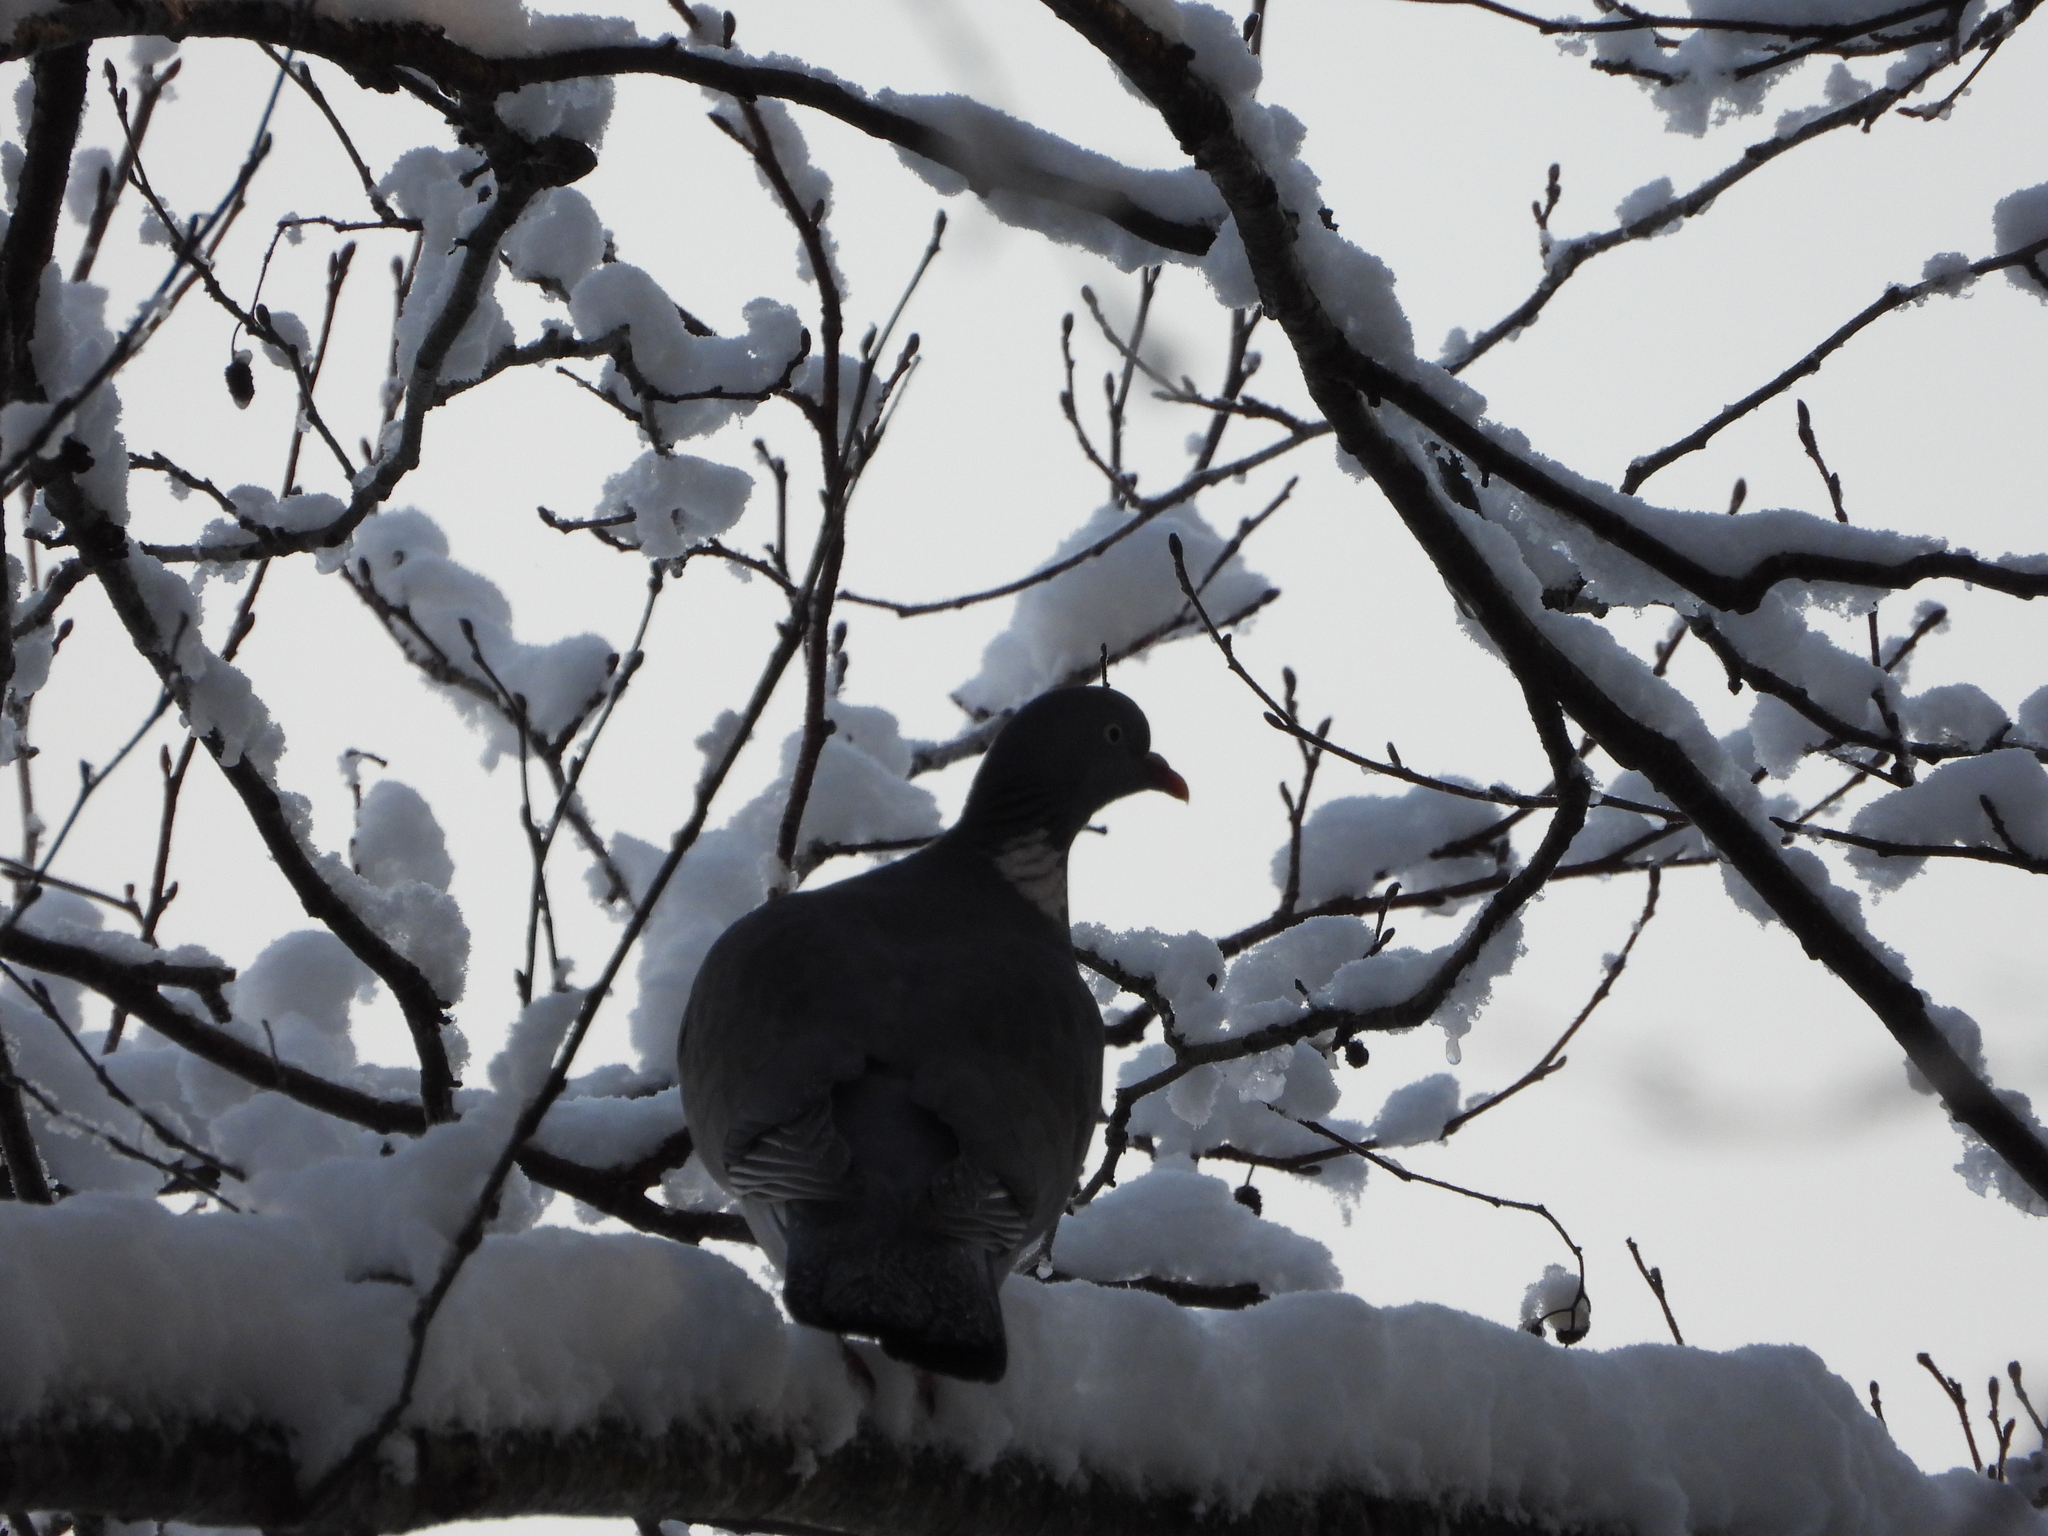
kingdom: Animalia
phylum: Chordata
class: Aves
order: Columbiformes
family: Columbidae
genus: Columba
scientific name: Columba palumbus
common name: Common wood pigeon
